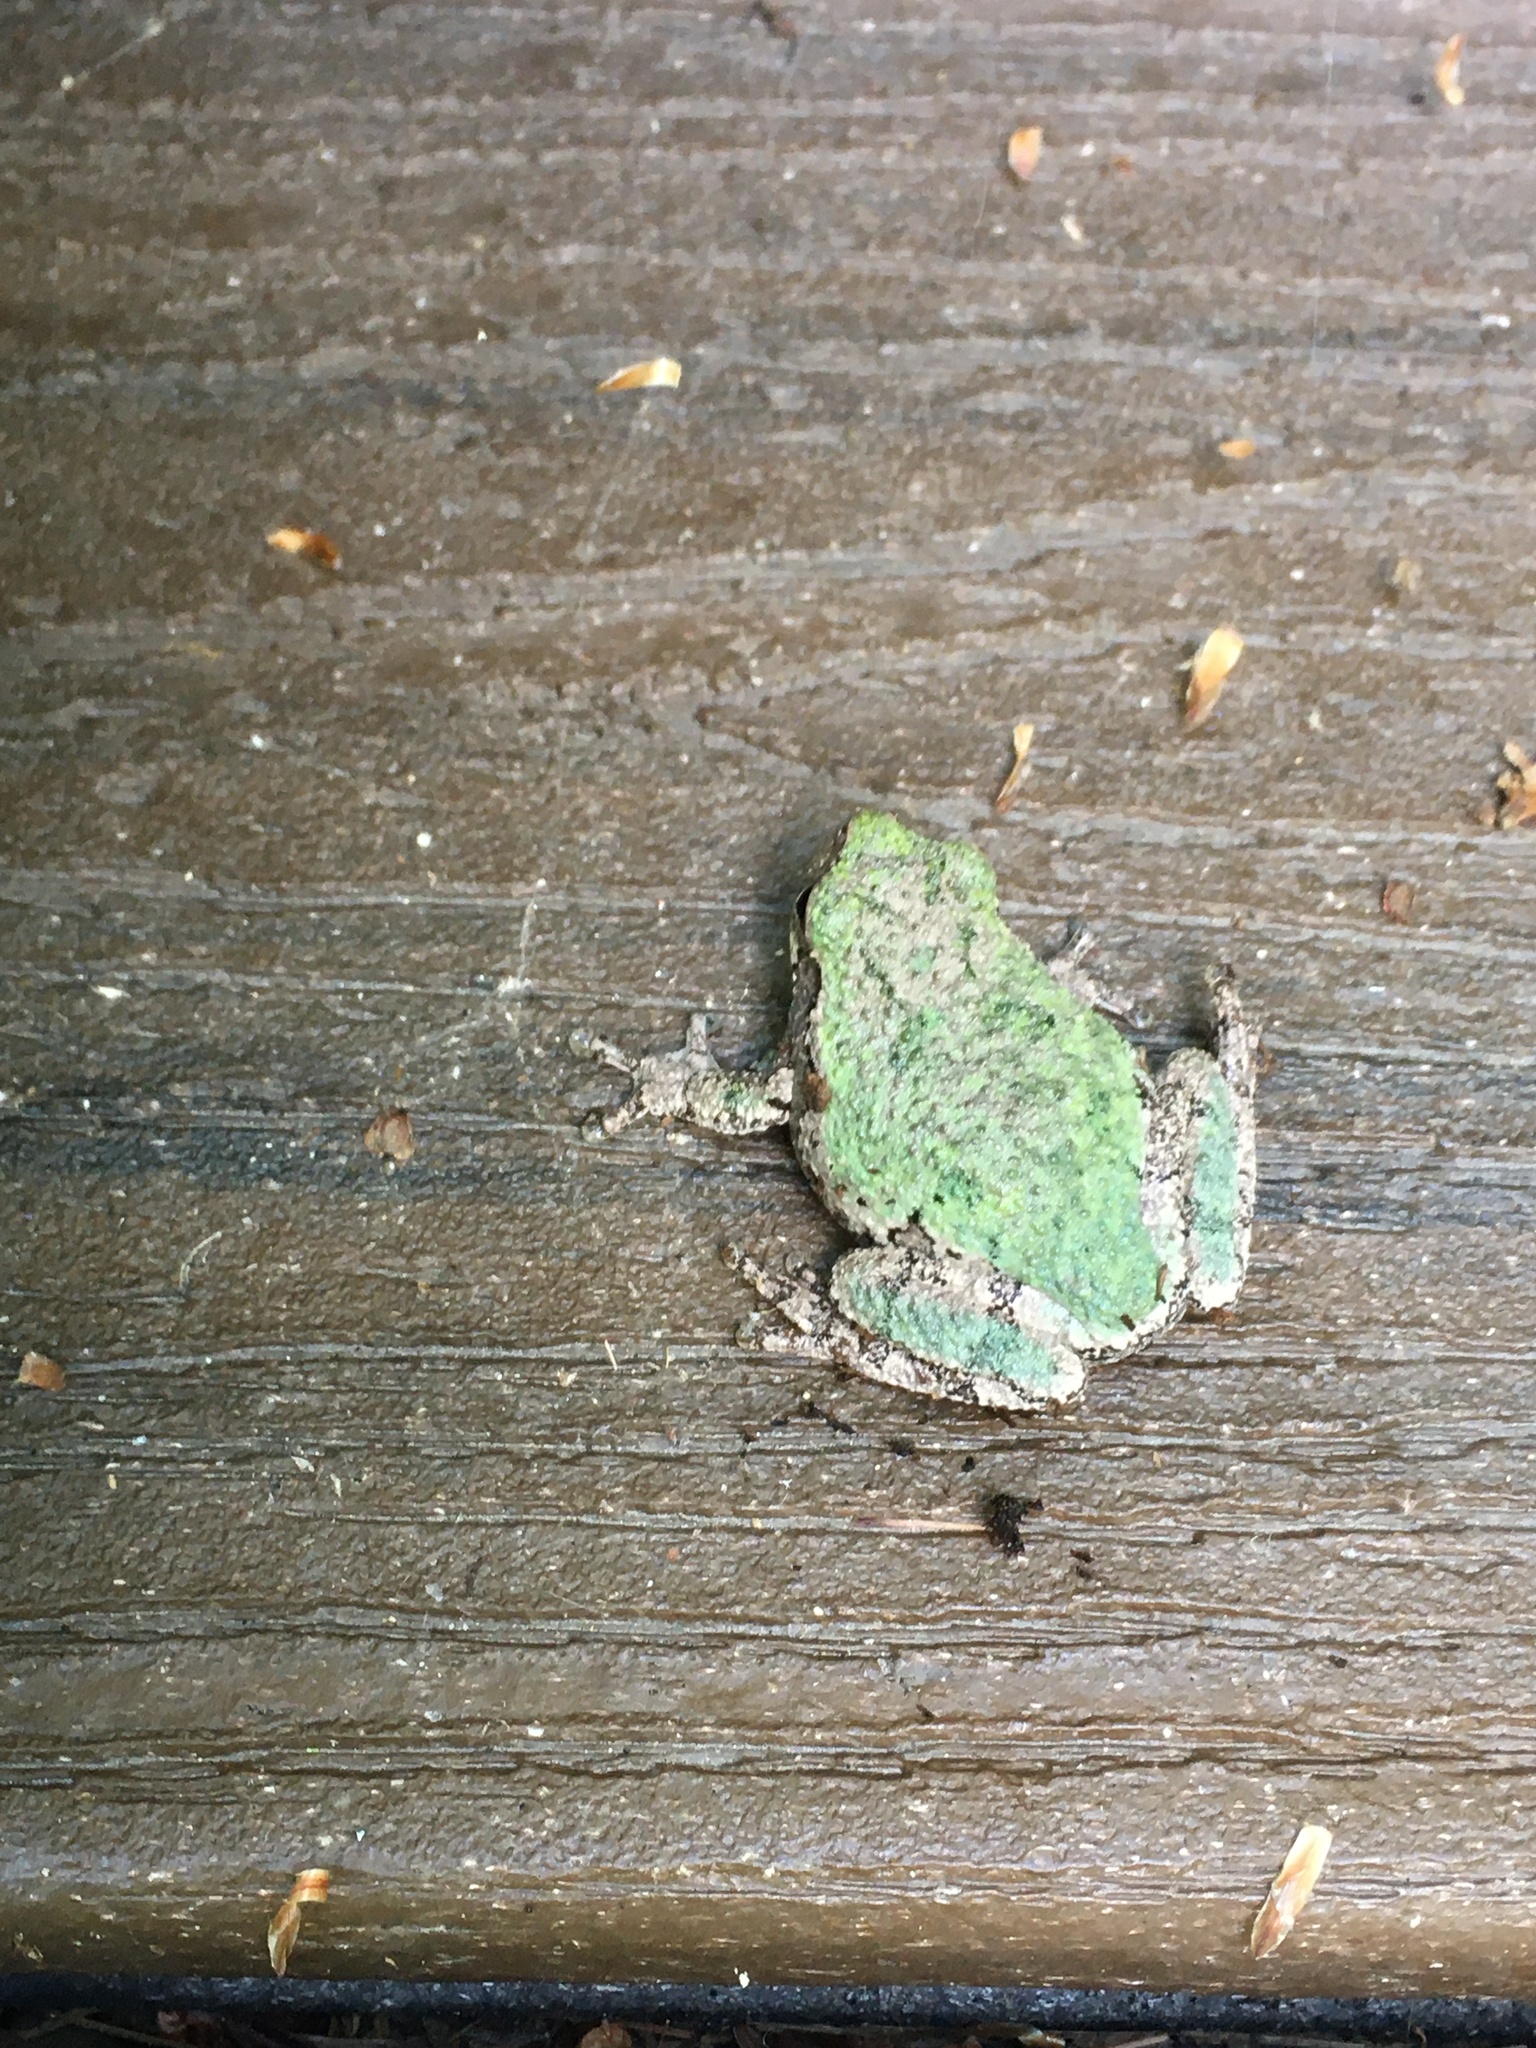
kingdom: Animalia
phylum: Chordata
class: Amphibia
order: Anura
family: Hylidae
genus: Dryophytes
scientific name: Dryophytes versicolor
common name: Gray treefrog
